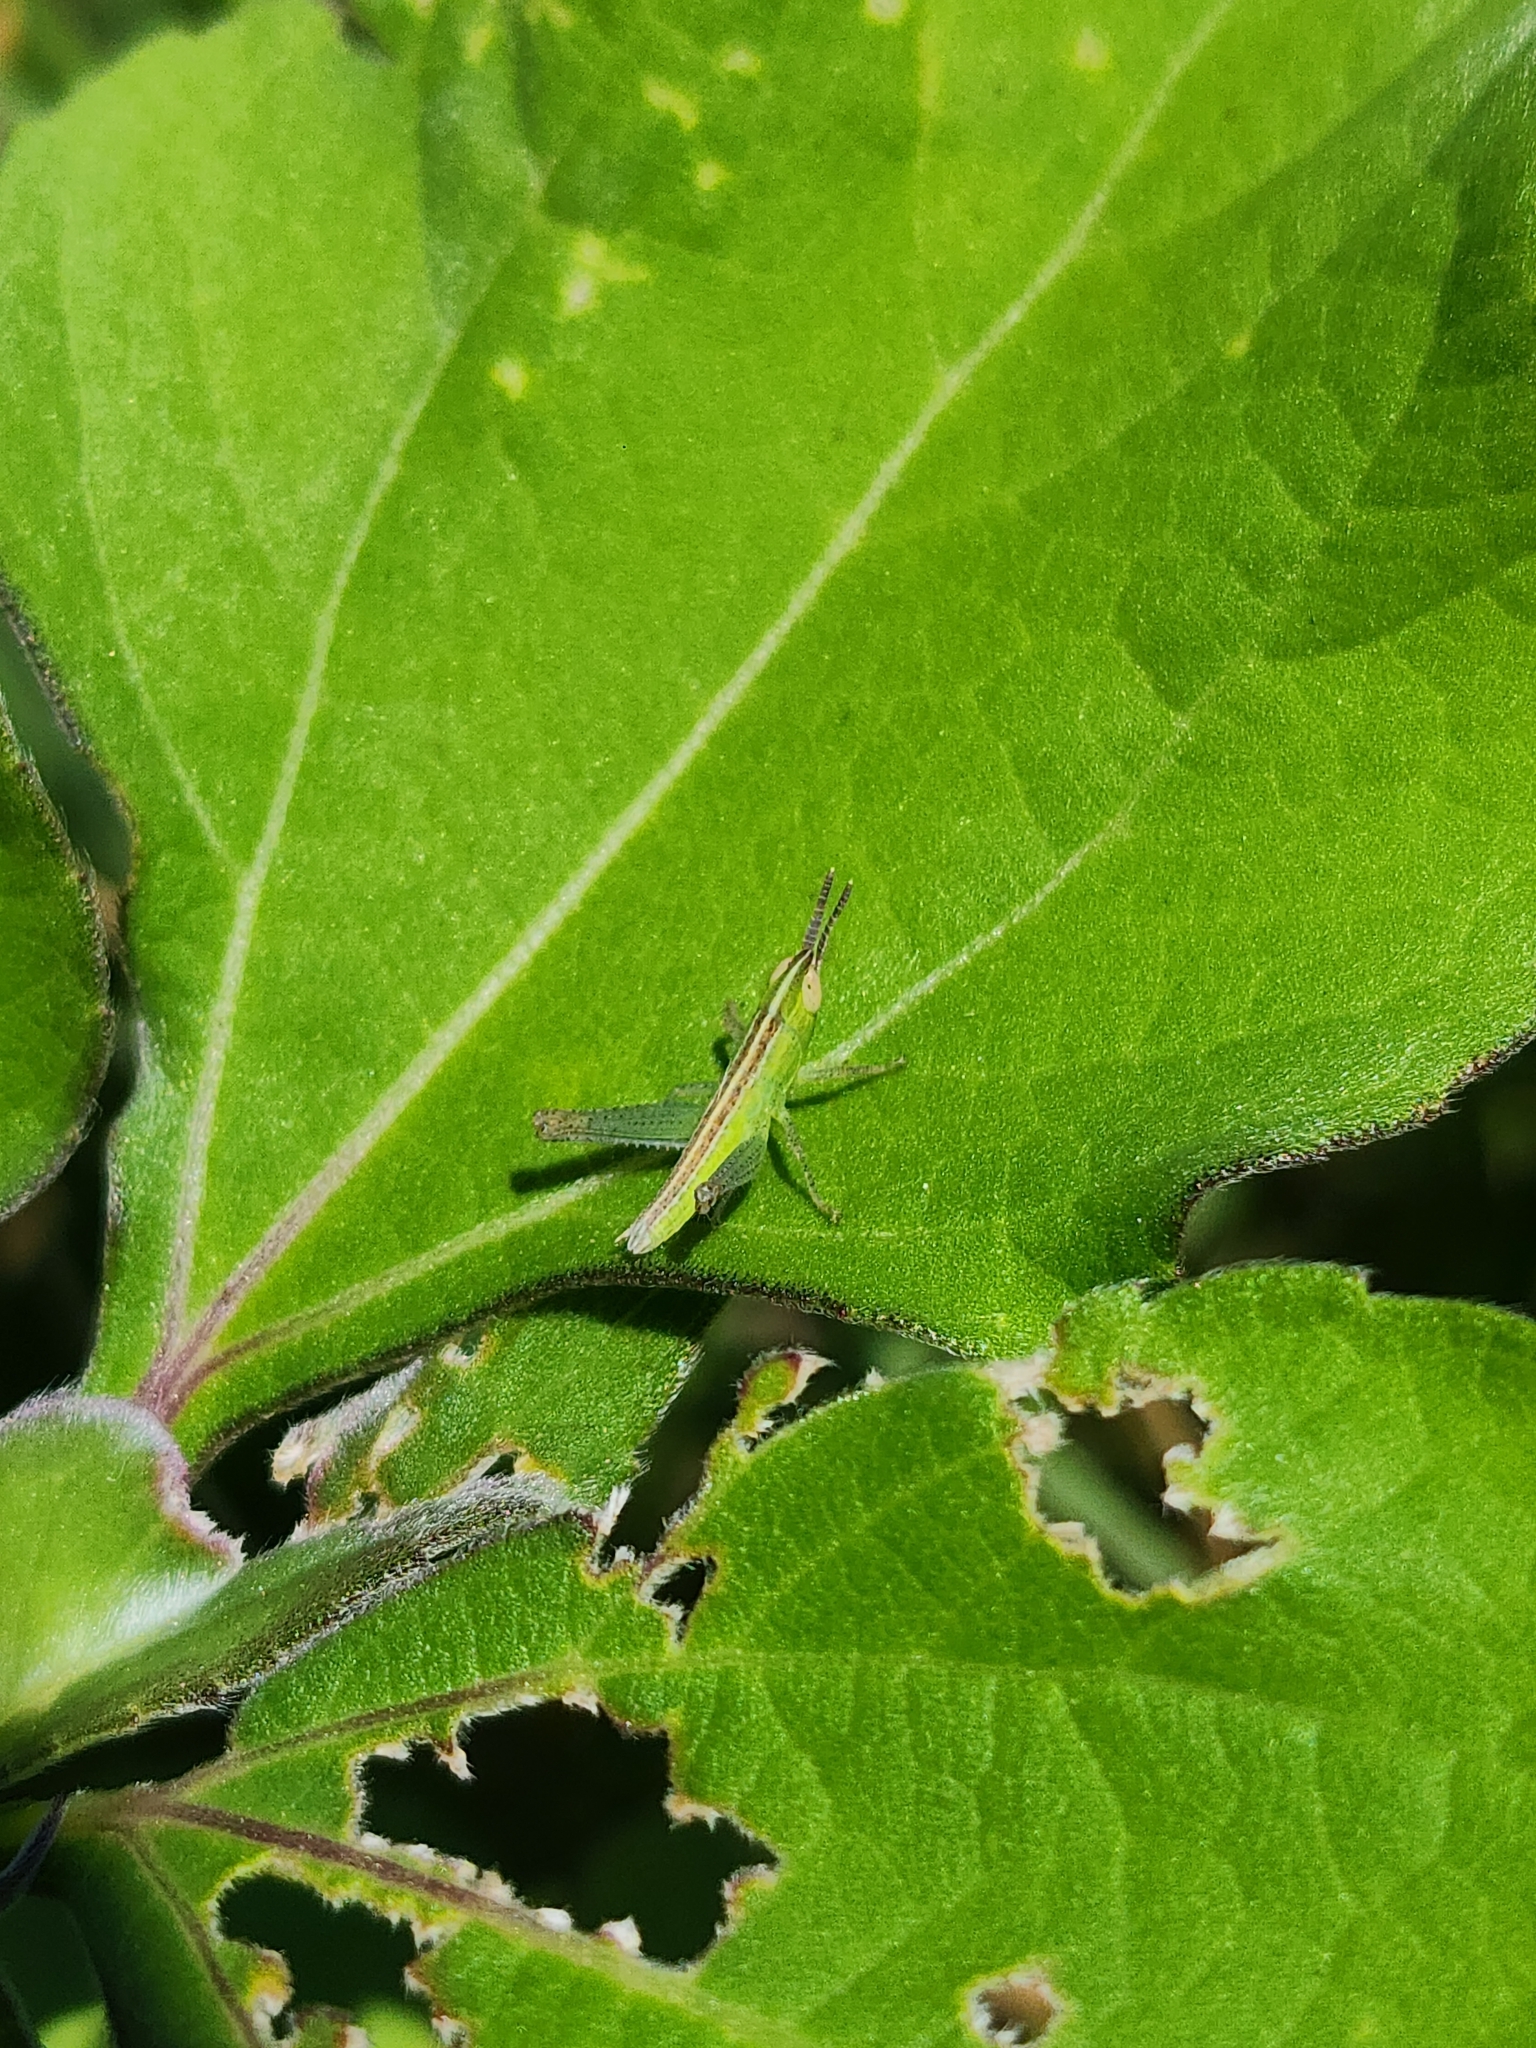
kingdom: Animalia
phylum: Arthropoda
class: Insecta
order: Orthoptera
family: Acrididae
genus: Staurorhectus
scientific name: Staurorhectus longicornis
